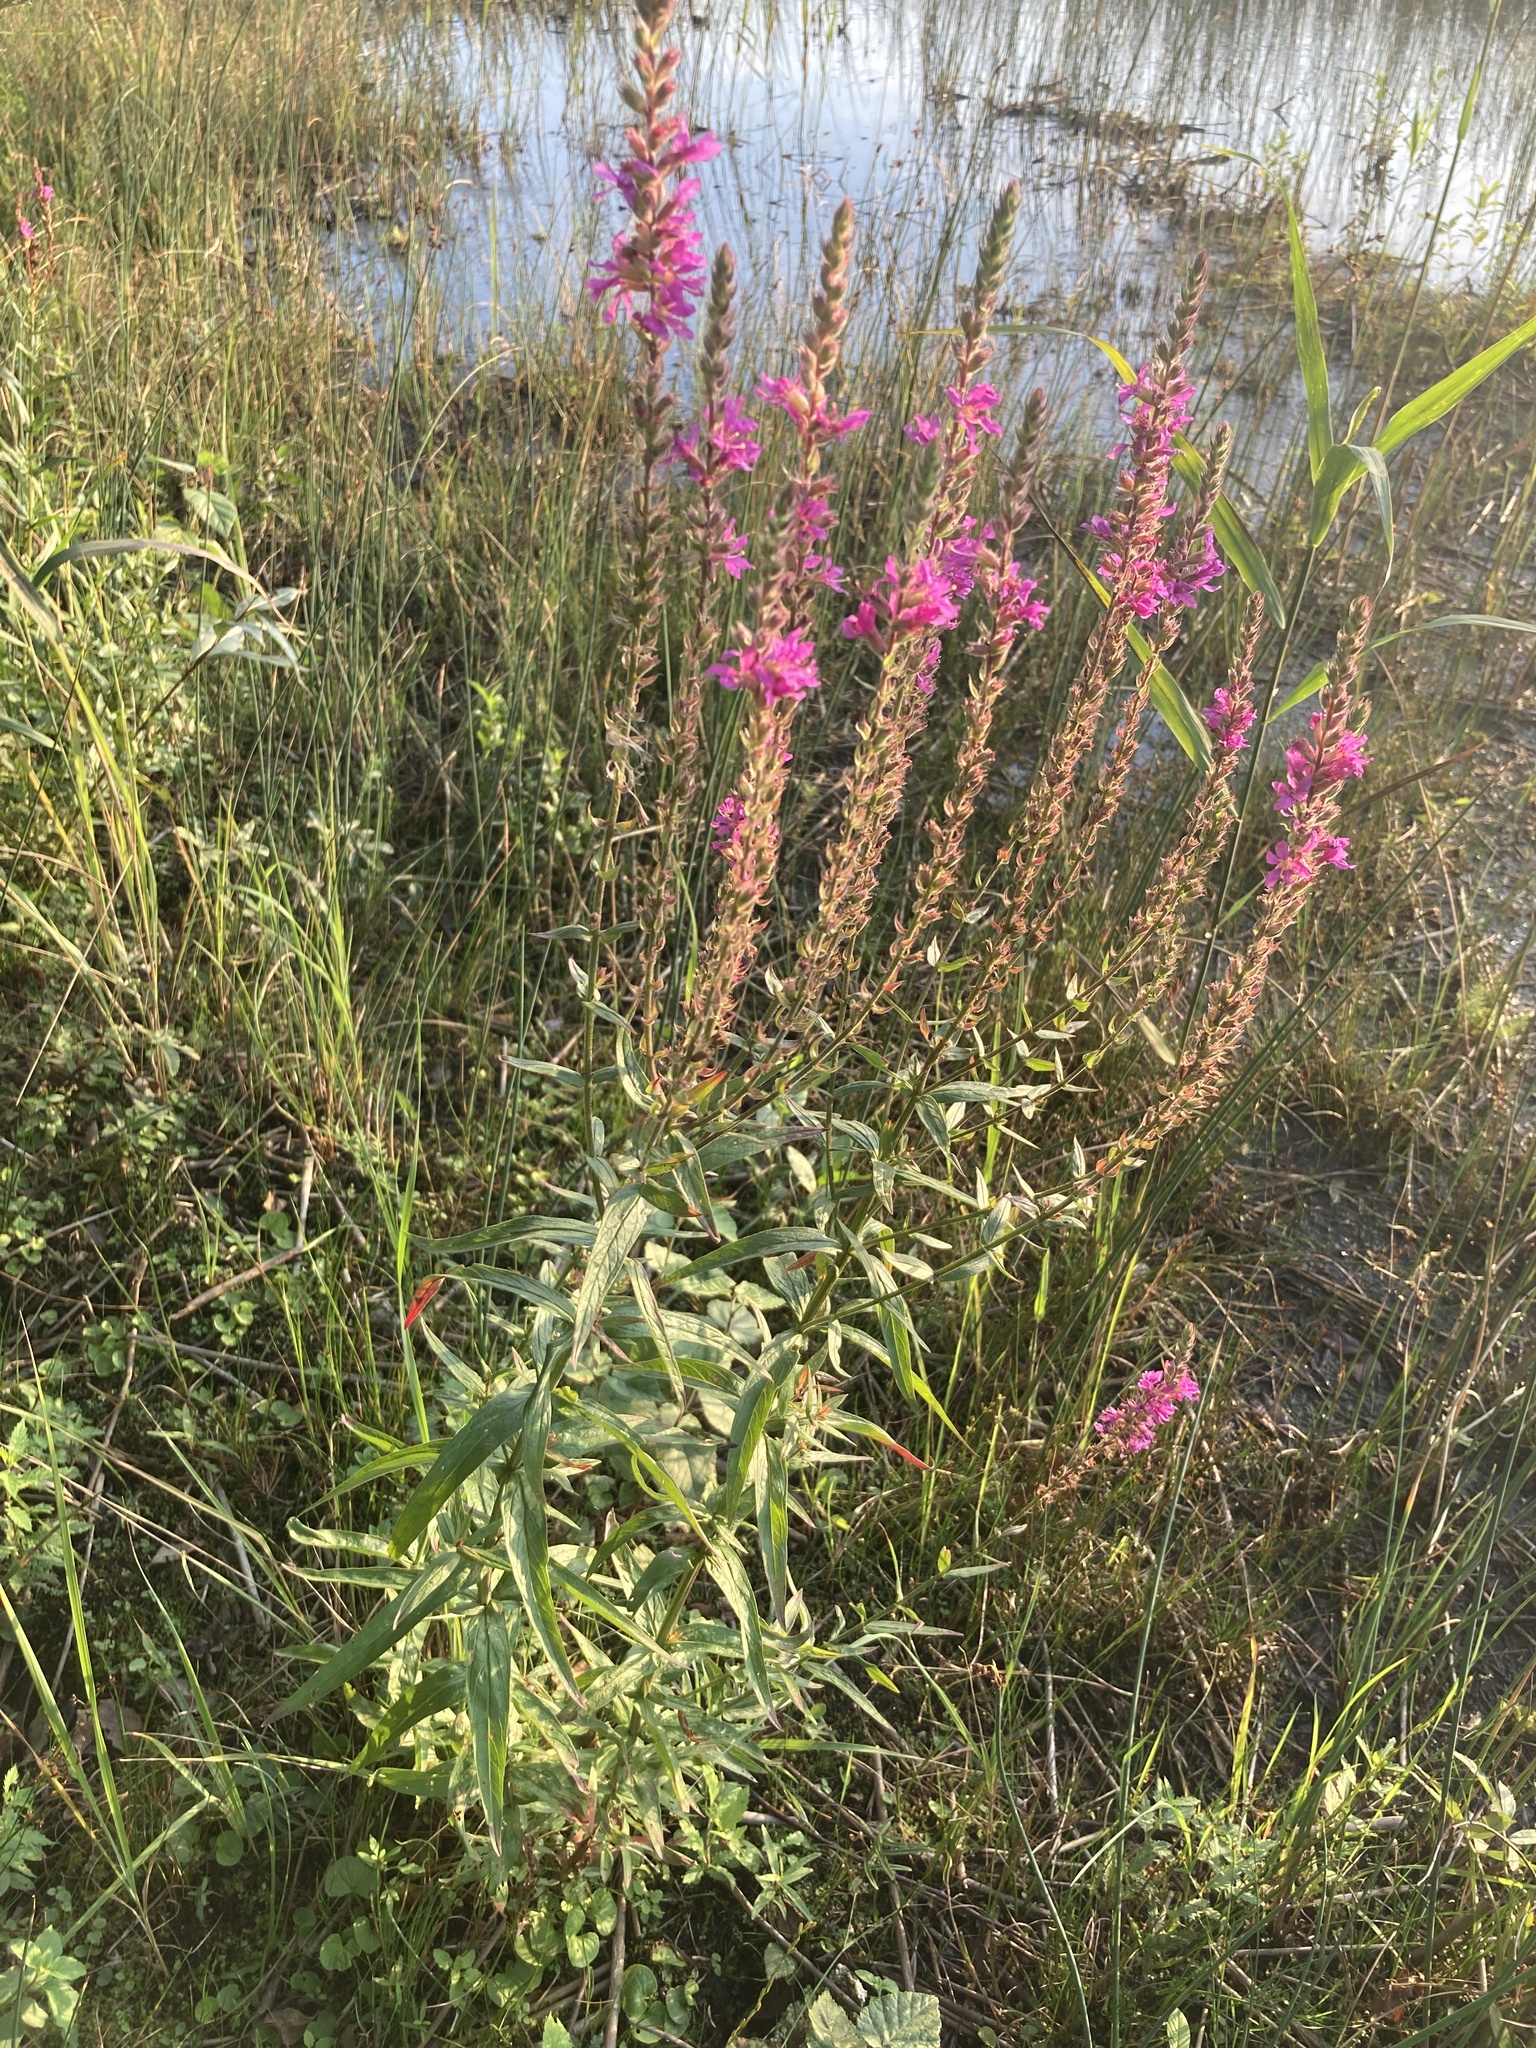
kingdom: Plantae
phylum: Tracheophyta
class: Magnoliopsida
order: Myrtales
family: Lythraceae
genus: Lythrum
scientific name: Lythrum salicaria
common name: Purple loosestrife
